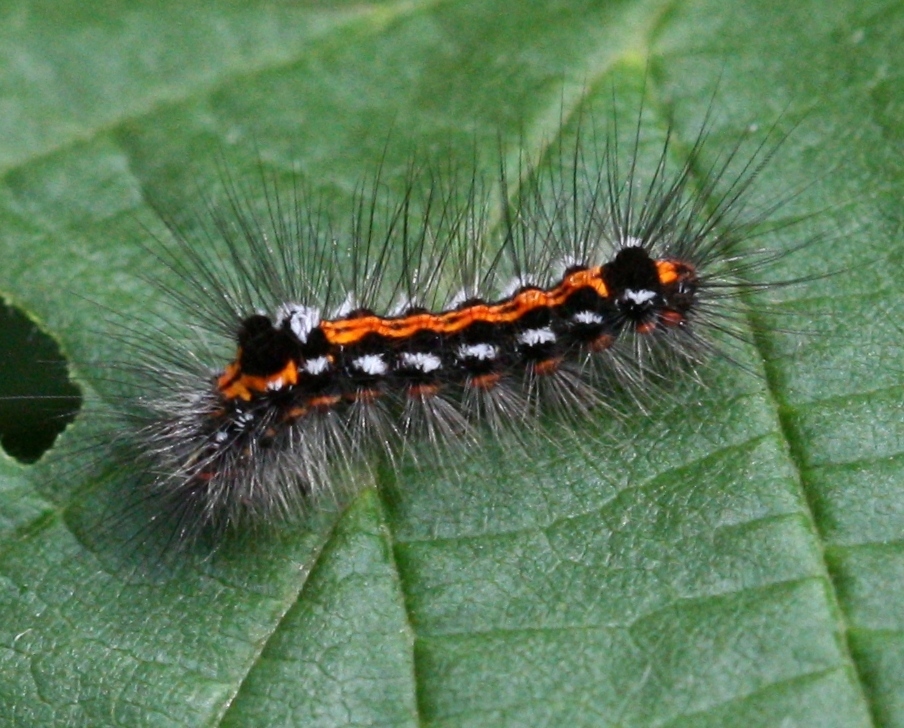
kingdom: Animalia
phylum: Arthropoda
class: Insecta
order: Lepidoptera
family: Erebidae
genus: Sphrageidus
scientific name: Sphrageidus similis
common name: Yellow-tail
